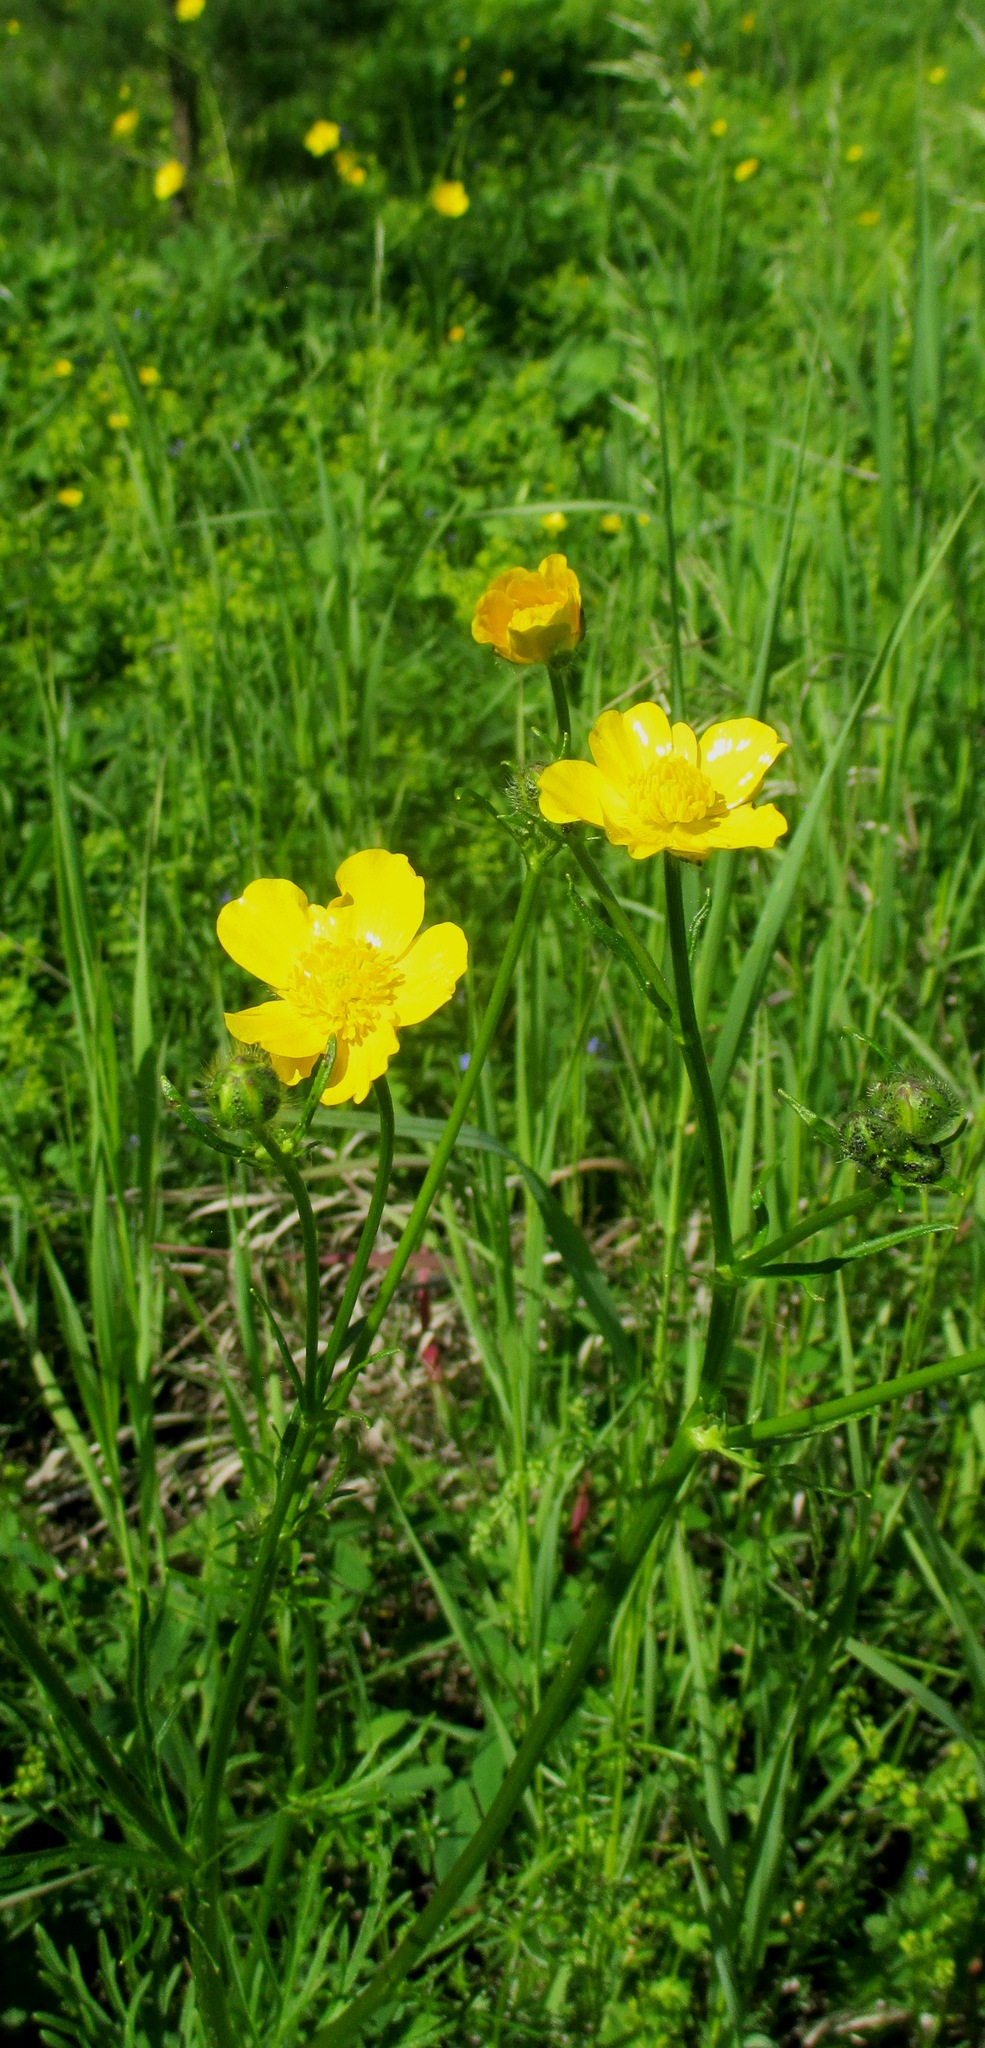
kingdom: Plantae
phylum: Tracheophyta
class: Magnoliopsida
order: Ranunculales
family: Ranunculaceae
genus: Ranunculus
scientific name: Ranunculus polyanthemos
